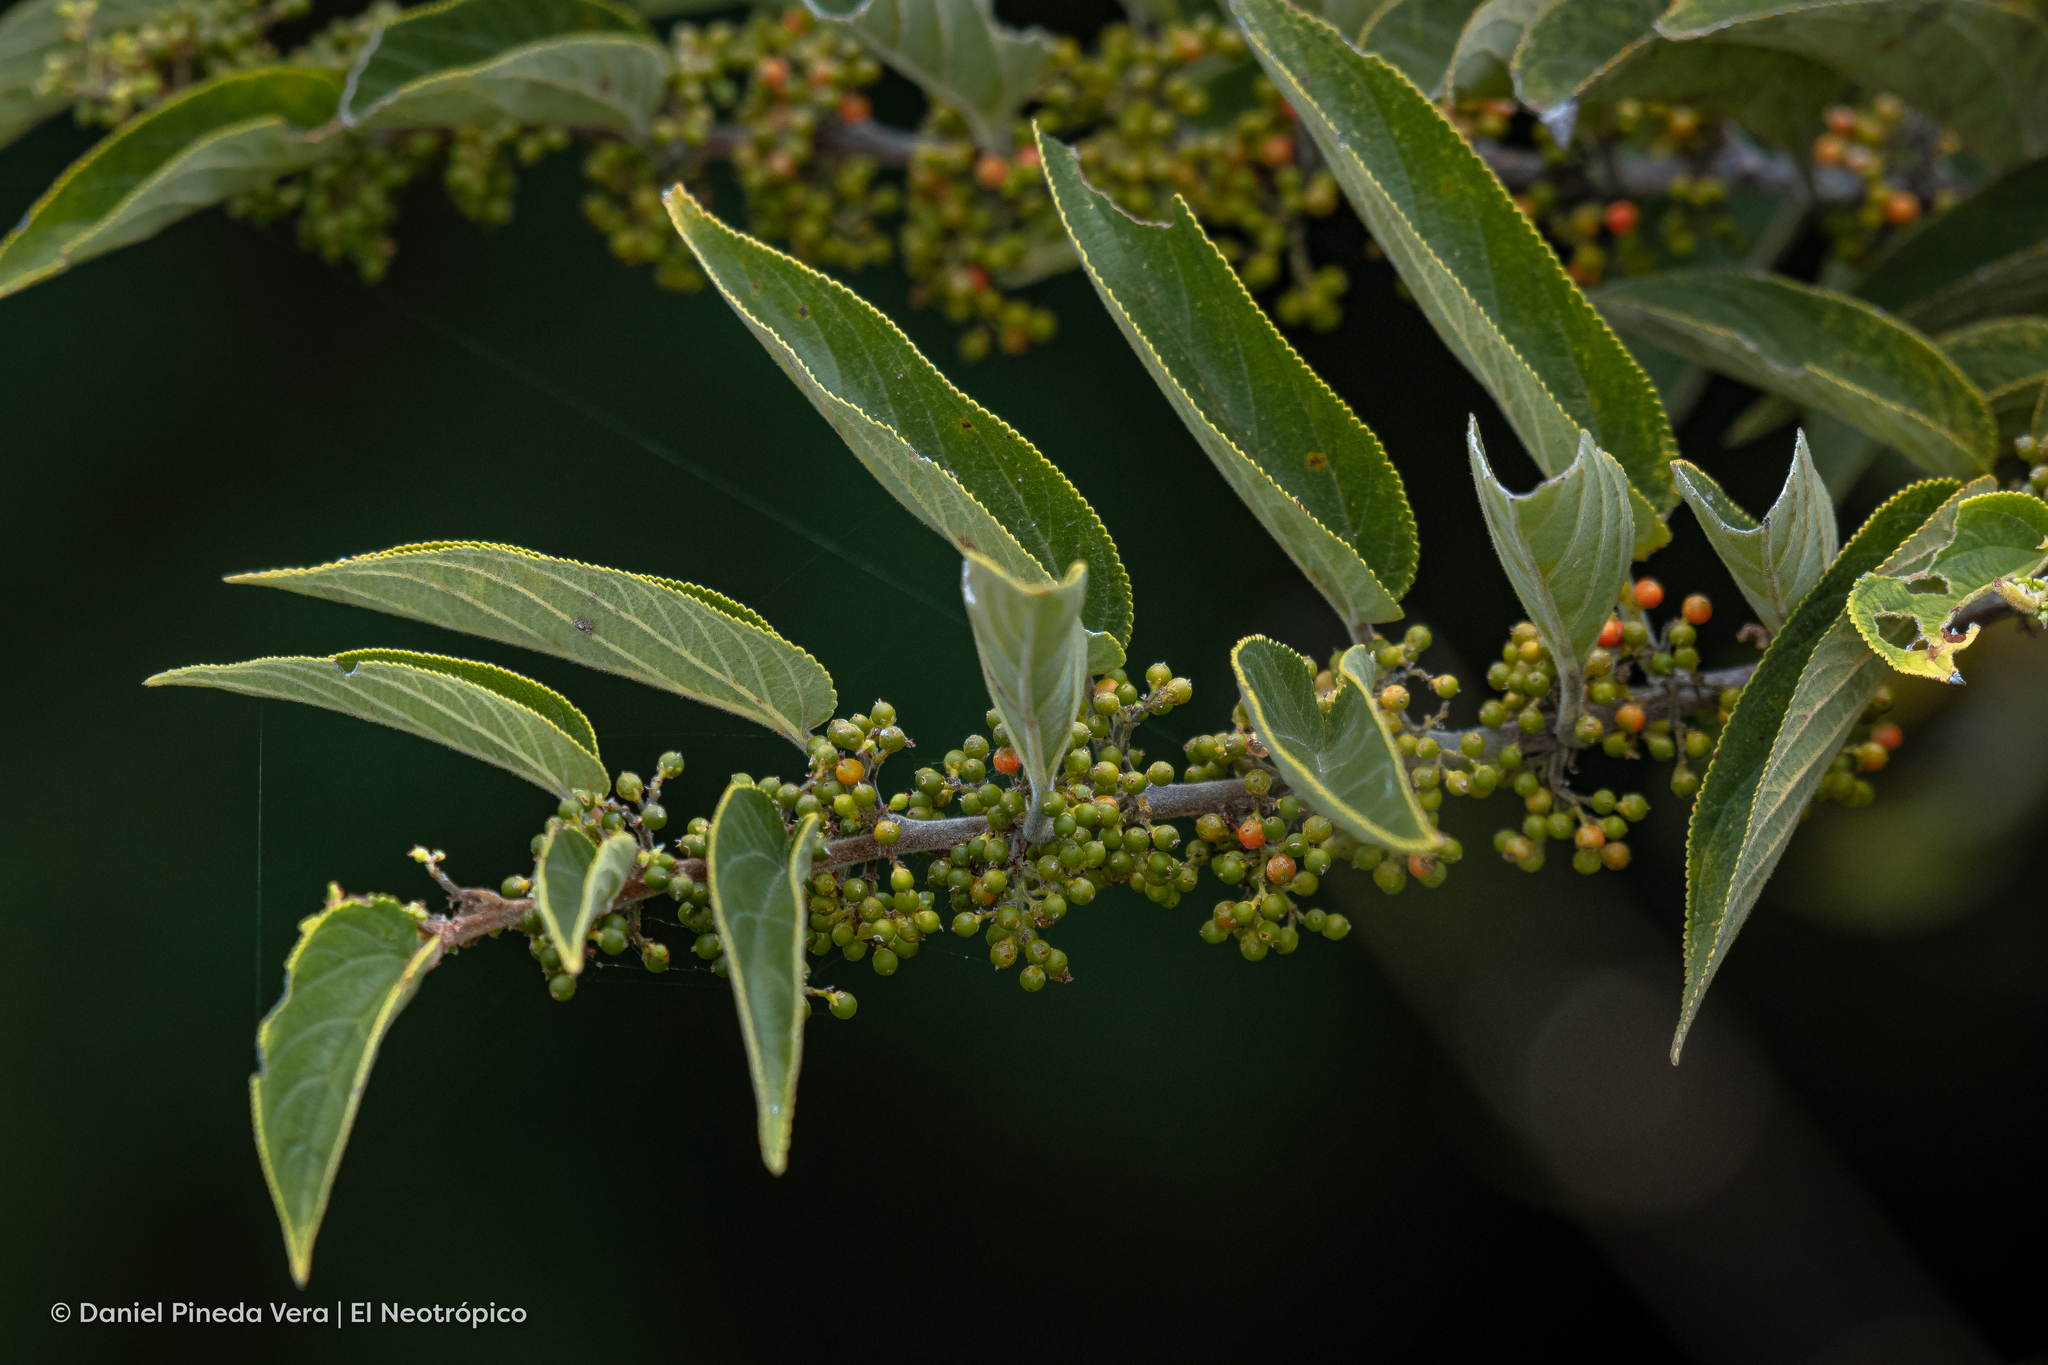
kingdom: Plantae
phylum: Tracheophyta
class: Magnoliopsida
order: Rosales
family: Cannabaceae
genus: Trema
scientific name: Trema micranthum
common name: Jamaican nettletree
